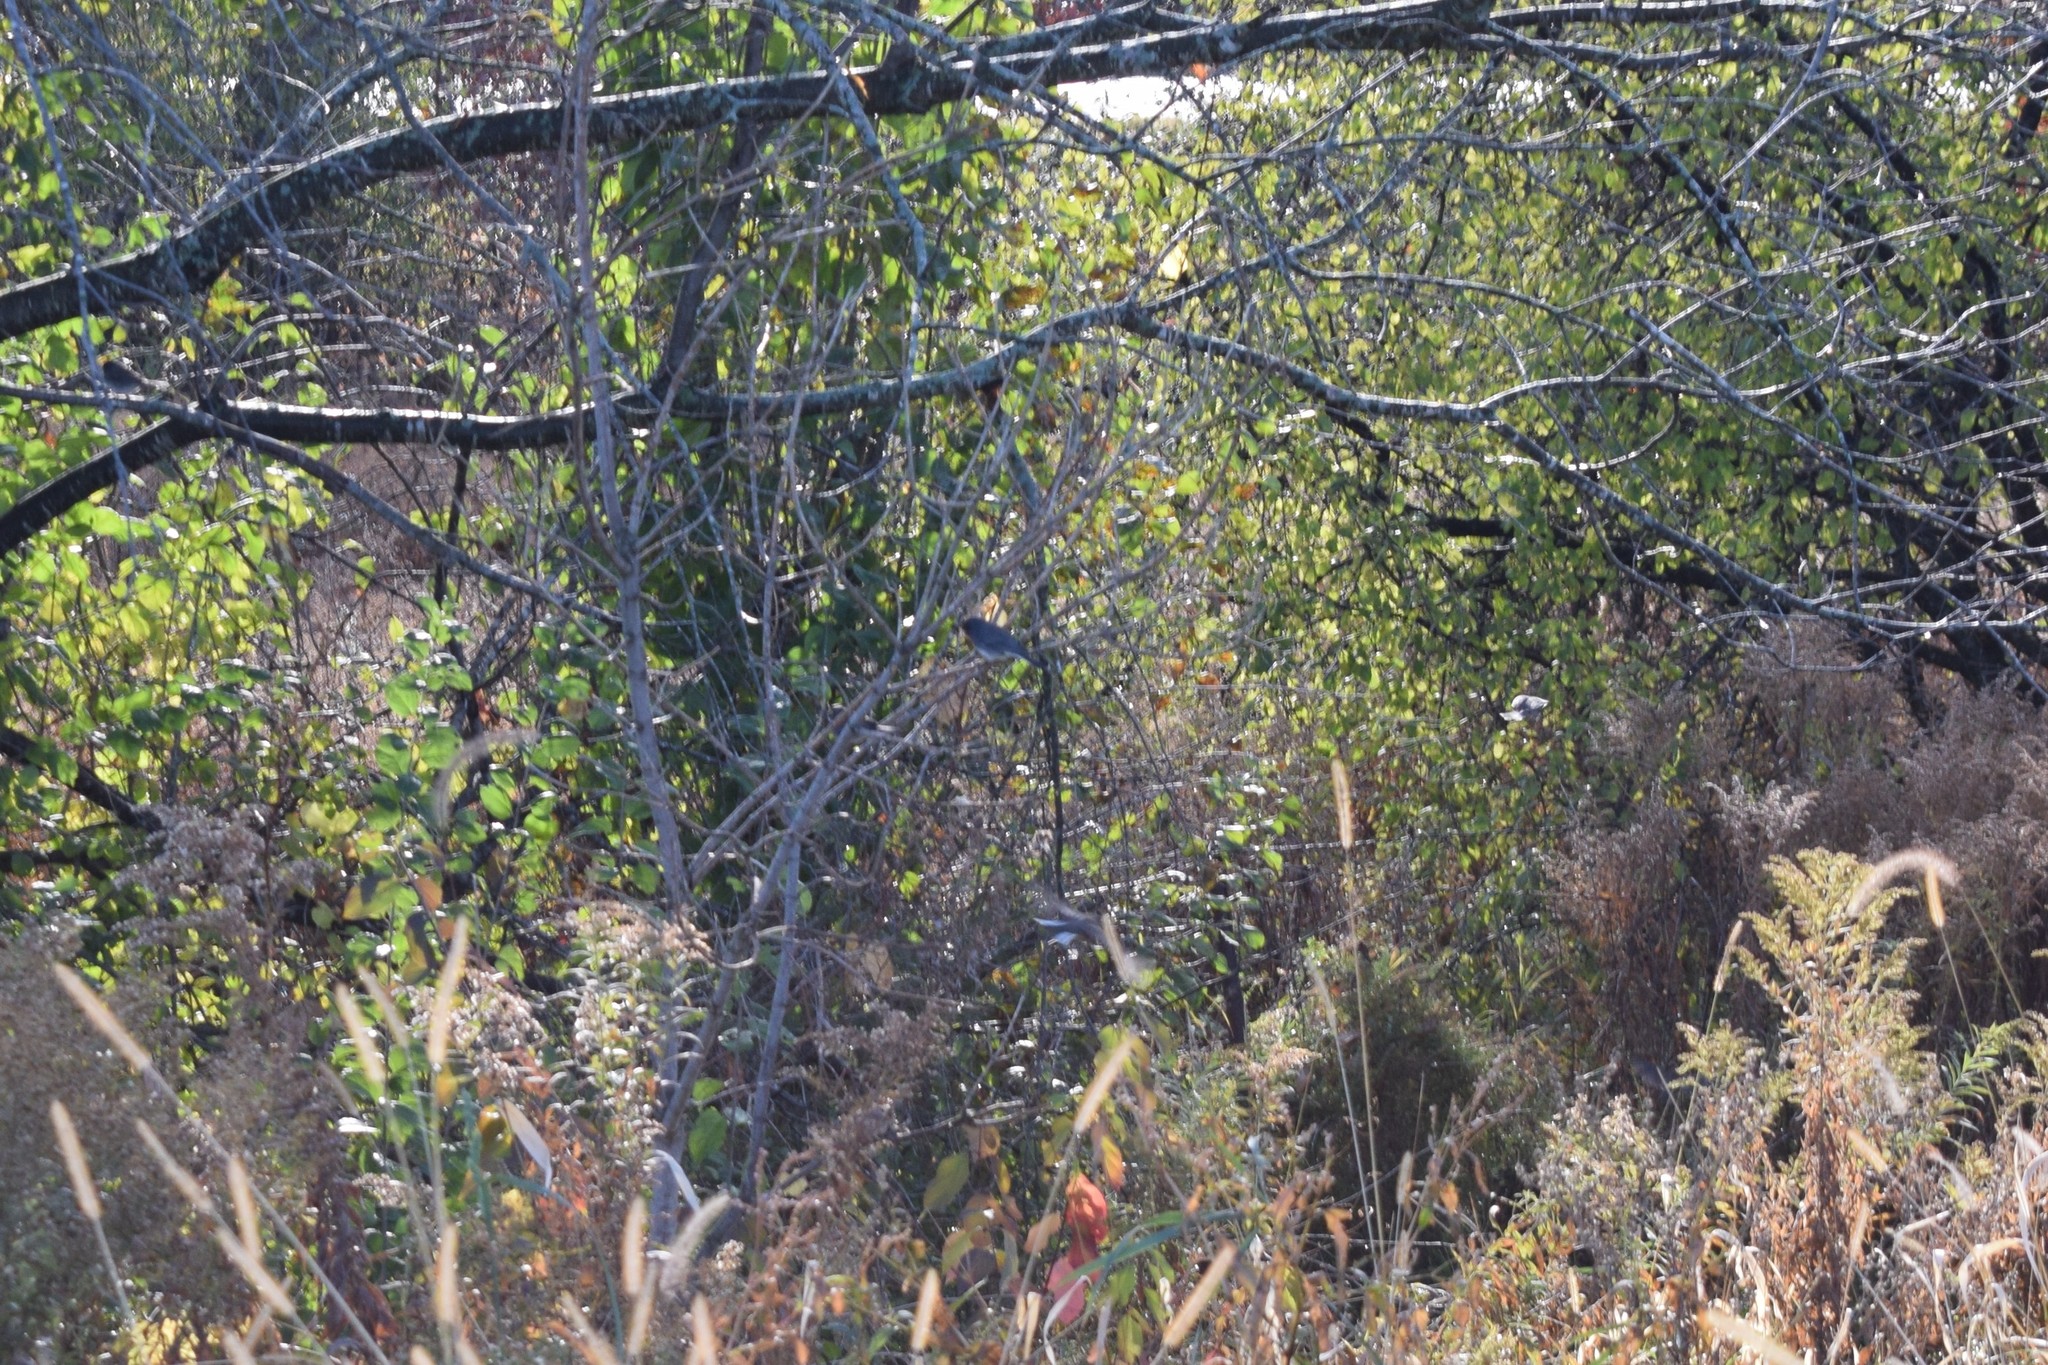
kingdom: Animalia
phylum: Chordata
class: Aves
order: Passeriformes
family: Passerellidae
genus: Junco
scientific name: Junco hyemalis
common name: Dark-eyed junco
